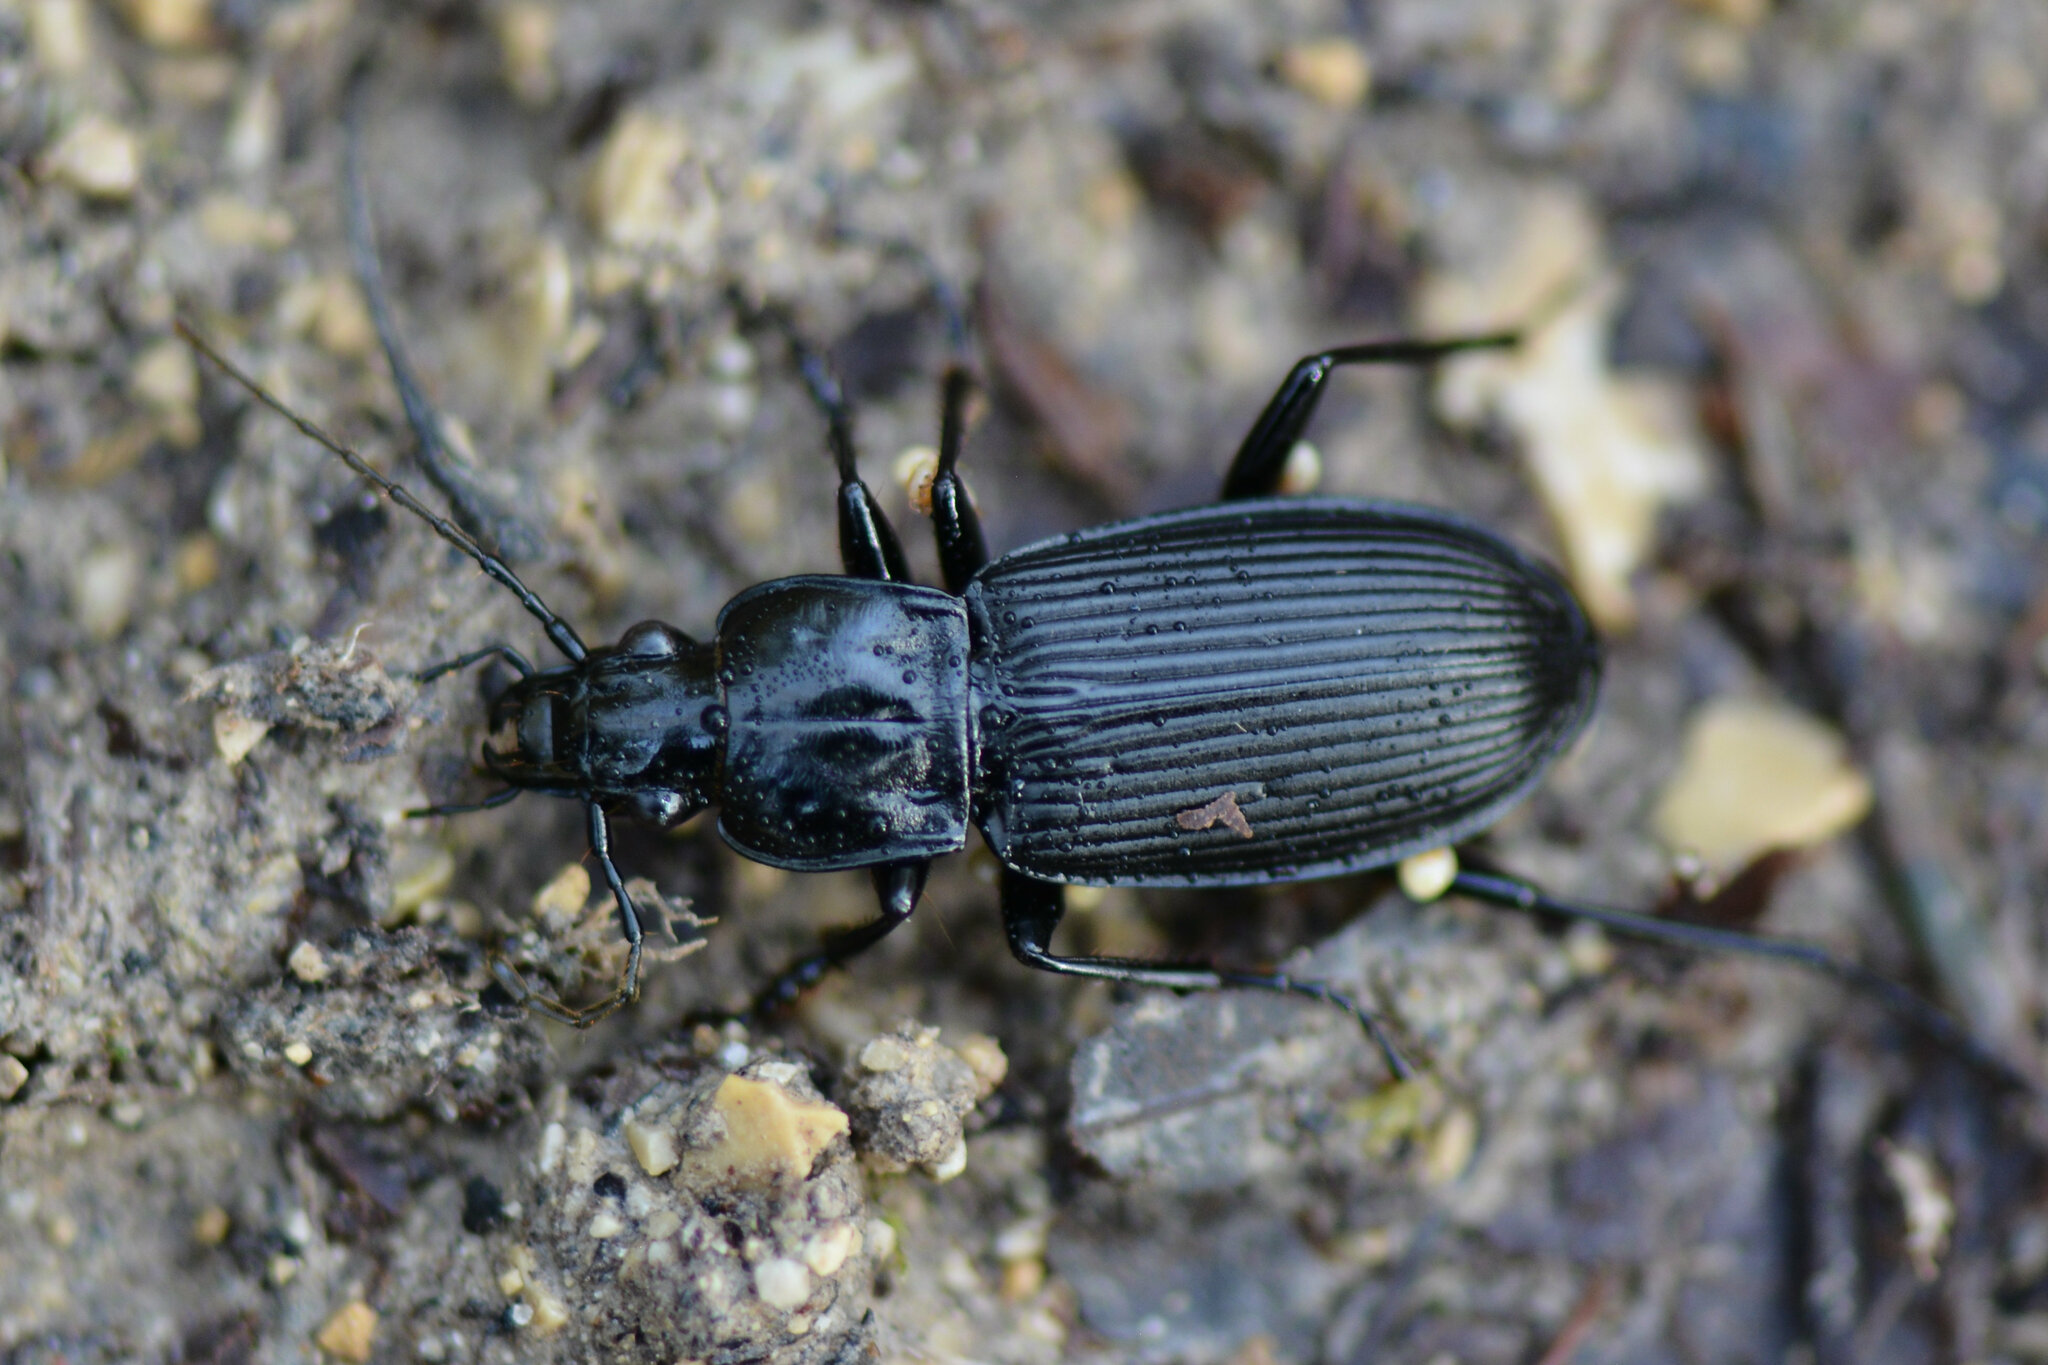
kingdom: Animalia
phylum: Arthropoda
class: Insecta
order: Coleoptera
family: Carabidae
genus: Pterostichus
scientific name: Pterostichus niger
